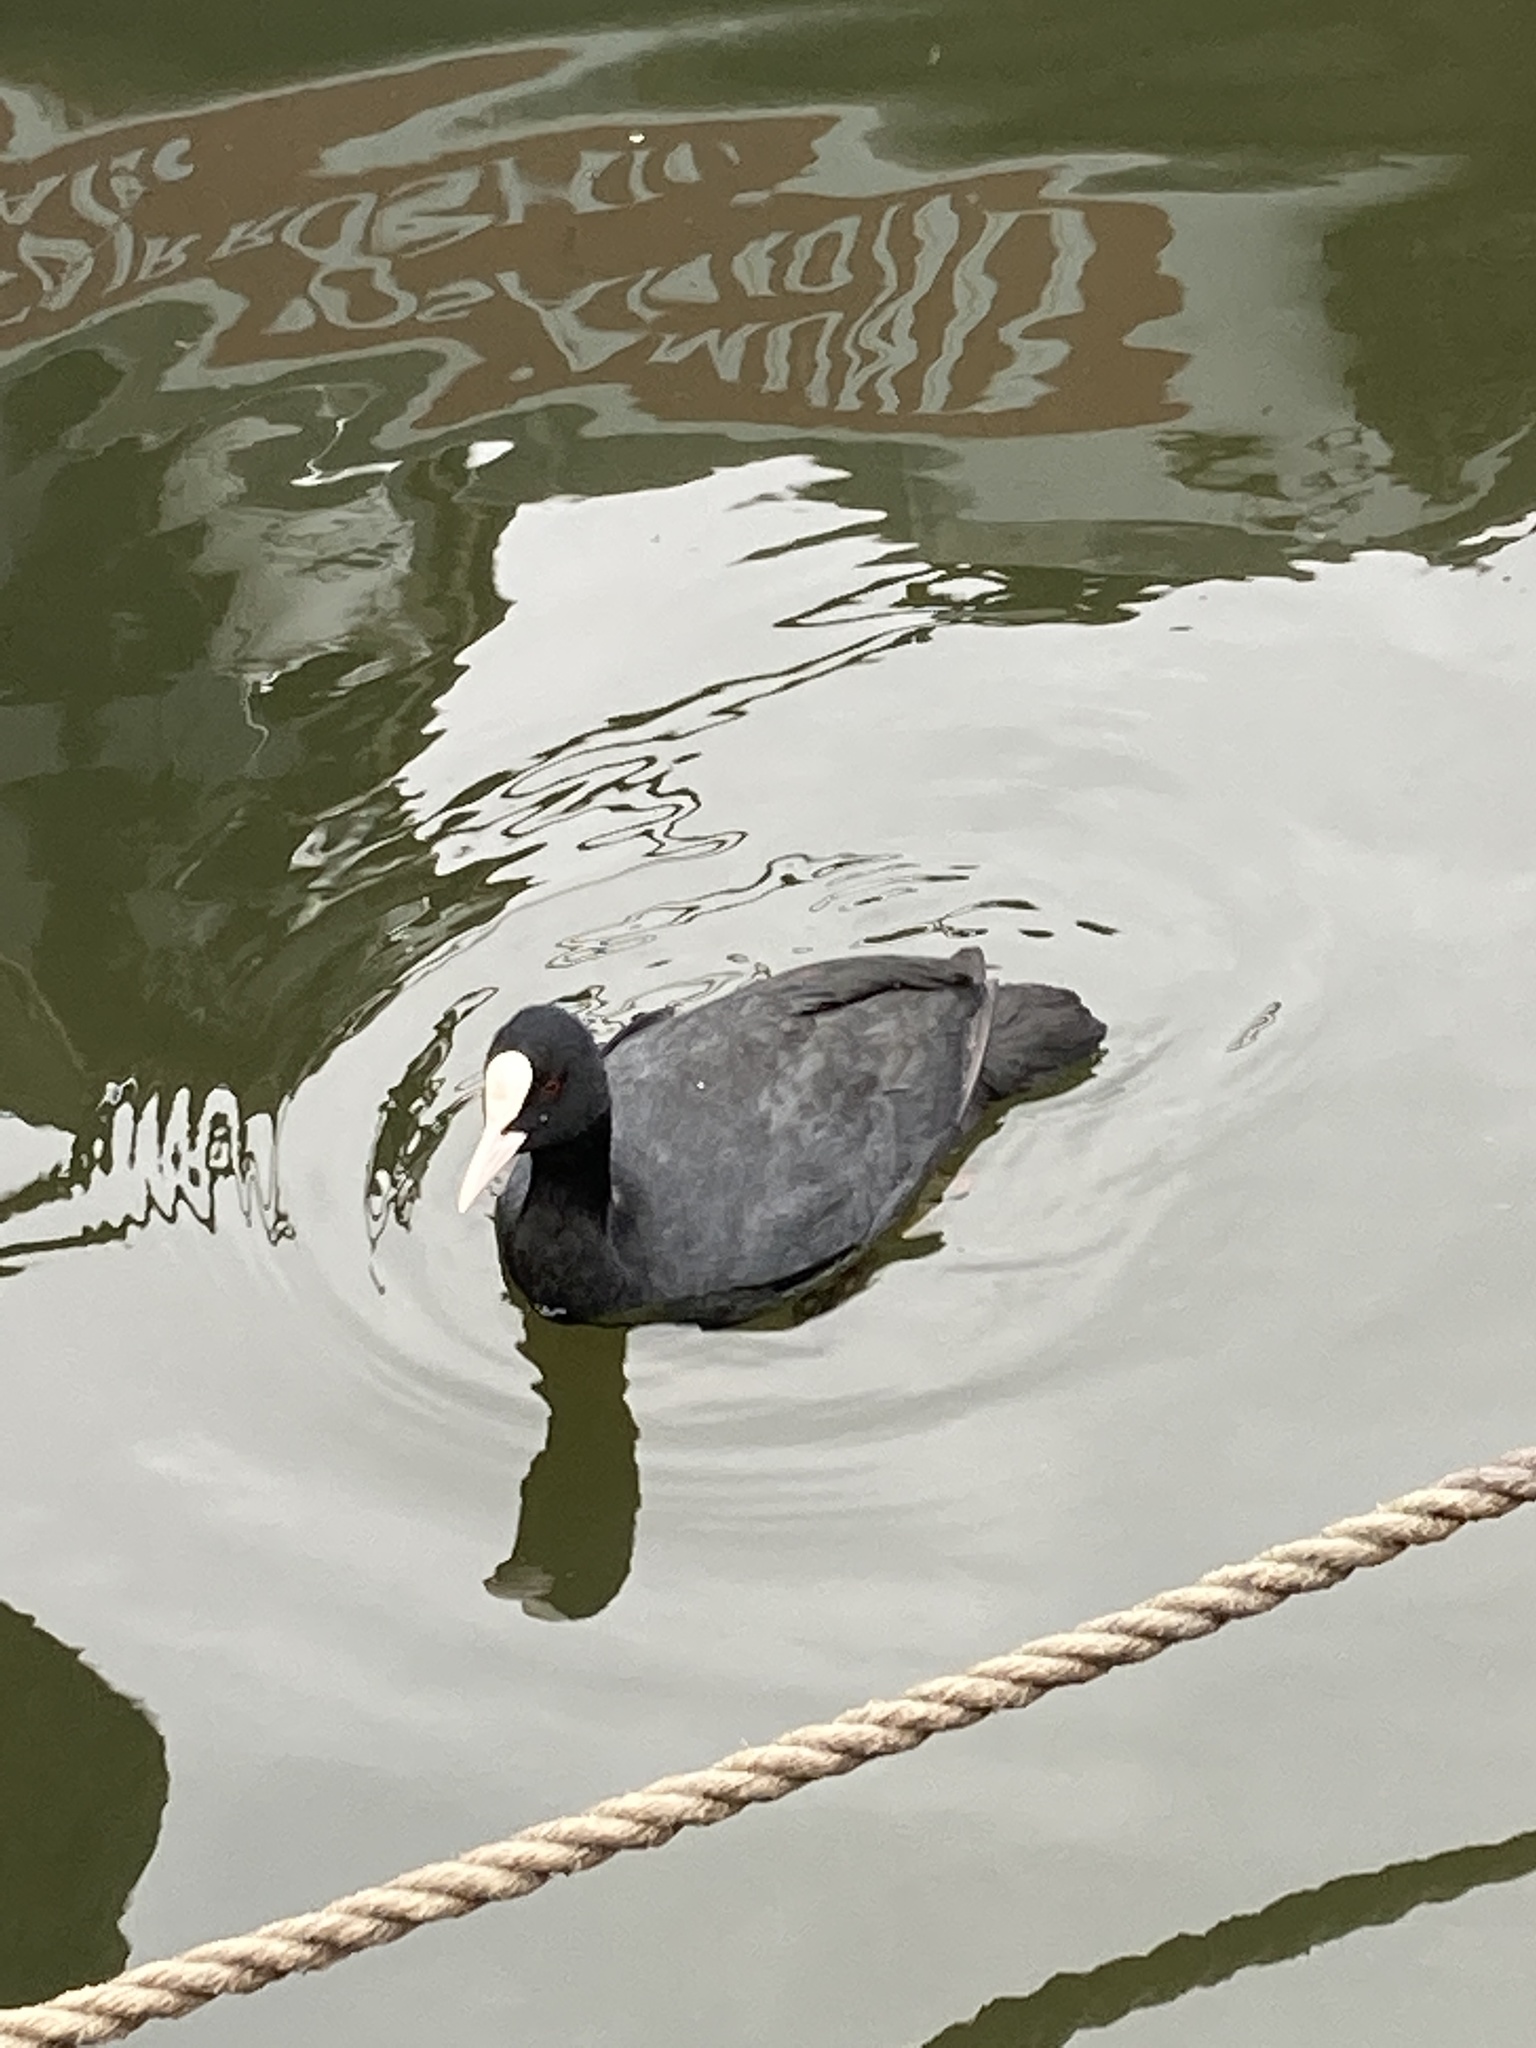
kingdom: Animalia
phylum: Chordata
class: Aves
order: Gruiformes
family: Rallidae
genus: Fulica
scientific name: Fulica atra
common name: Eurasian coot
